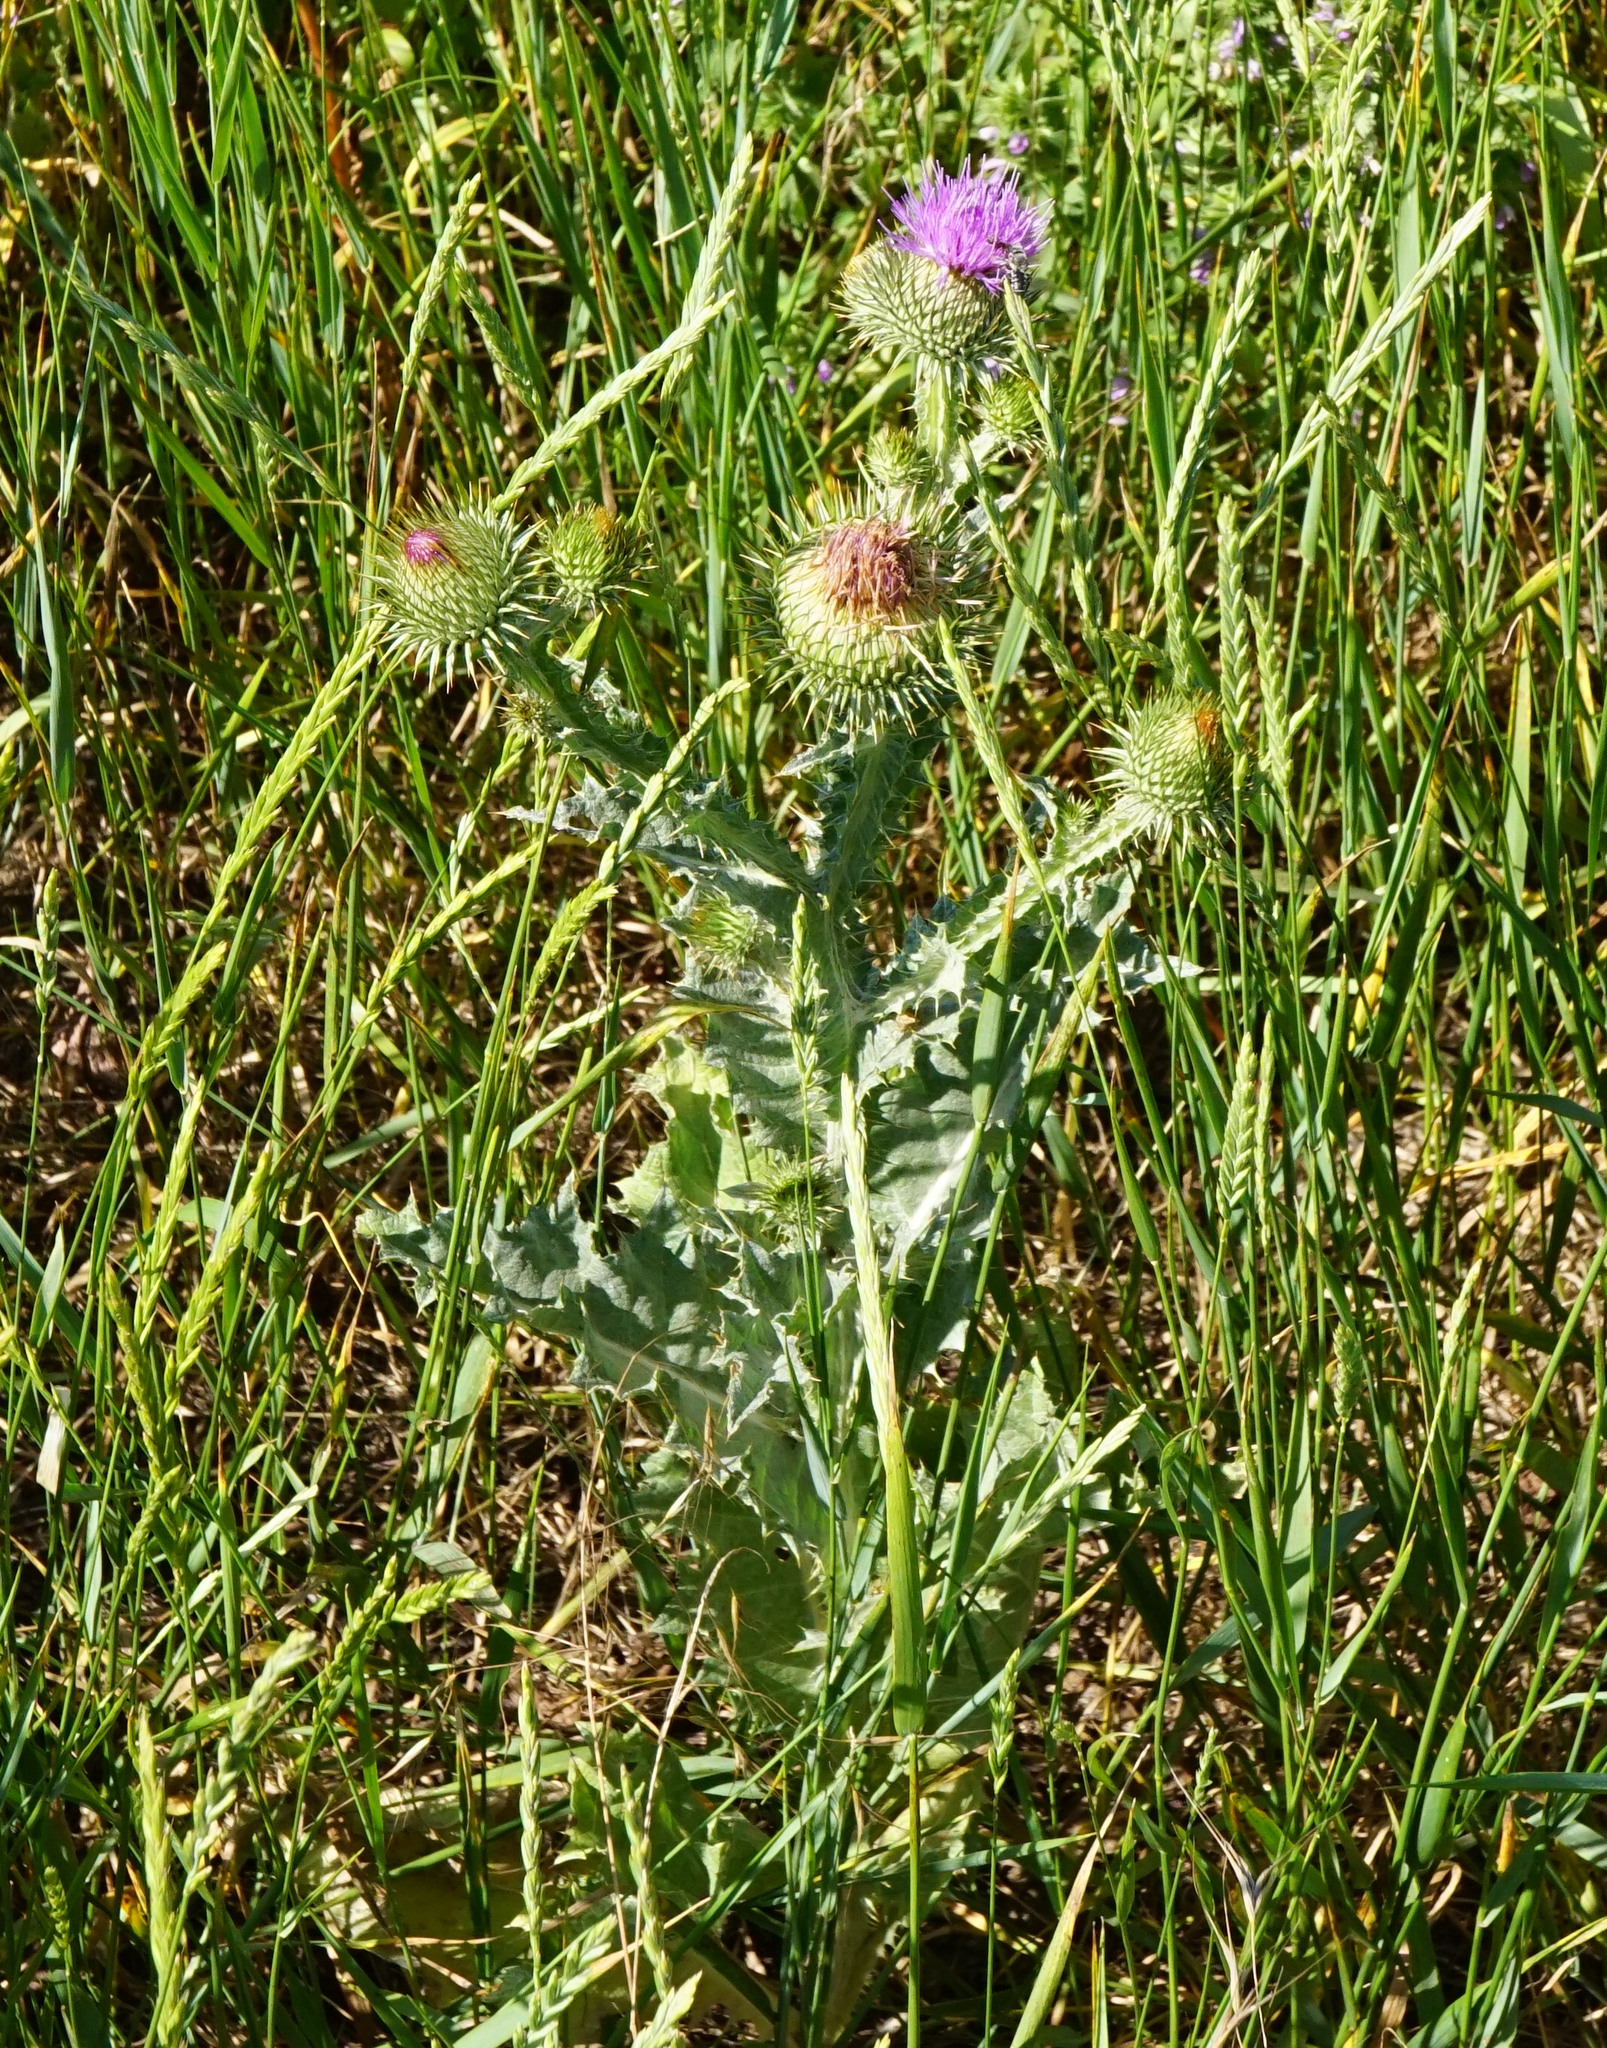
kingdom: Plantae
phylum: Tracheophyta
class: Magnoliopsida
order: Asterales
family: Asteraceae
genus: Onopordum
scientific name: Onopordum acanthium
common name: Scotch thistle
